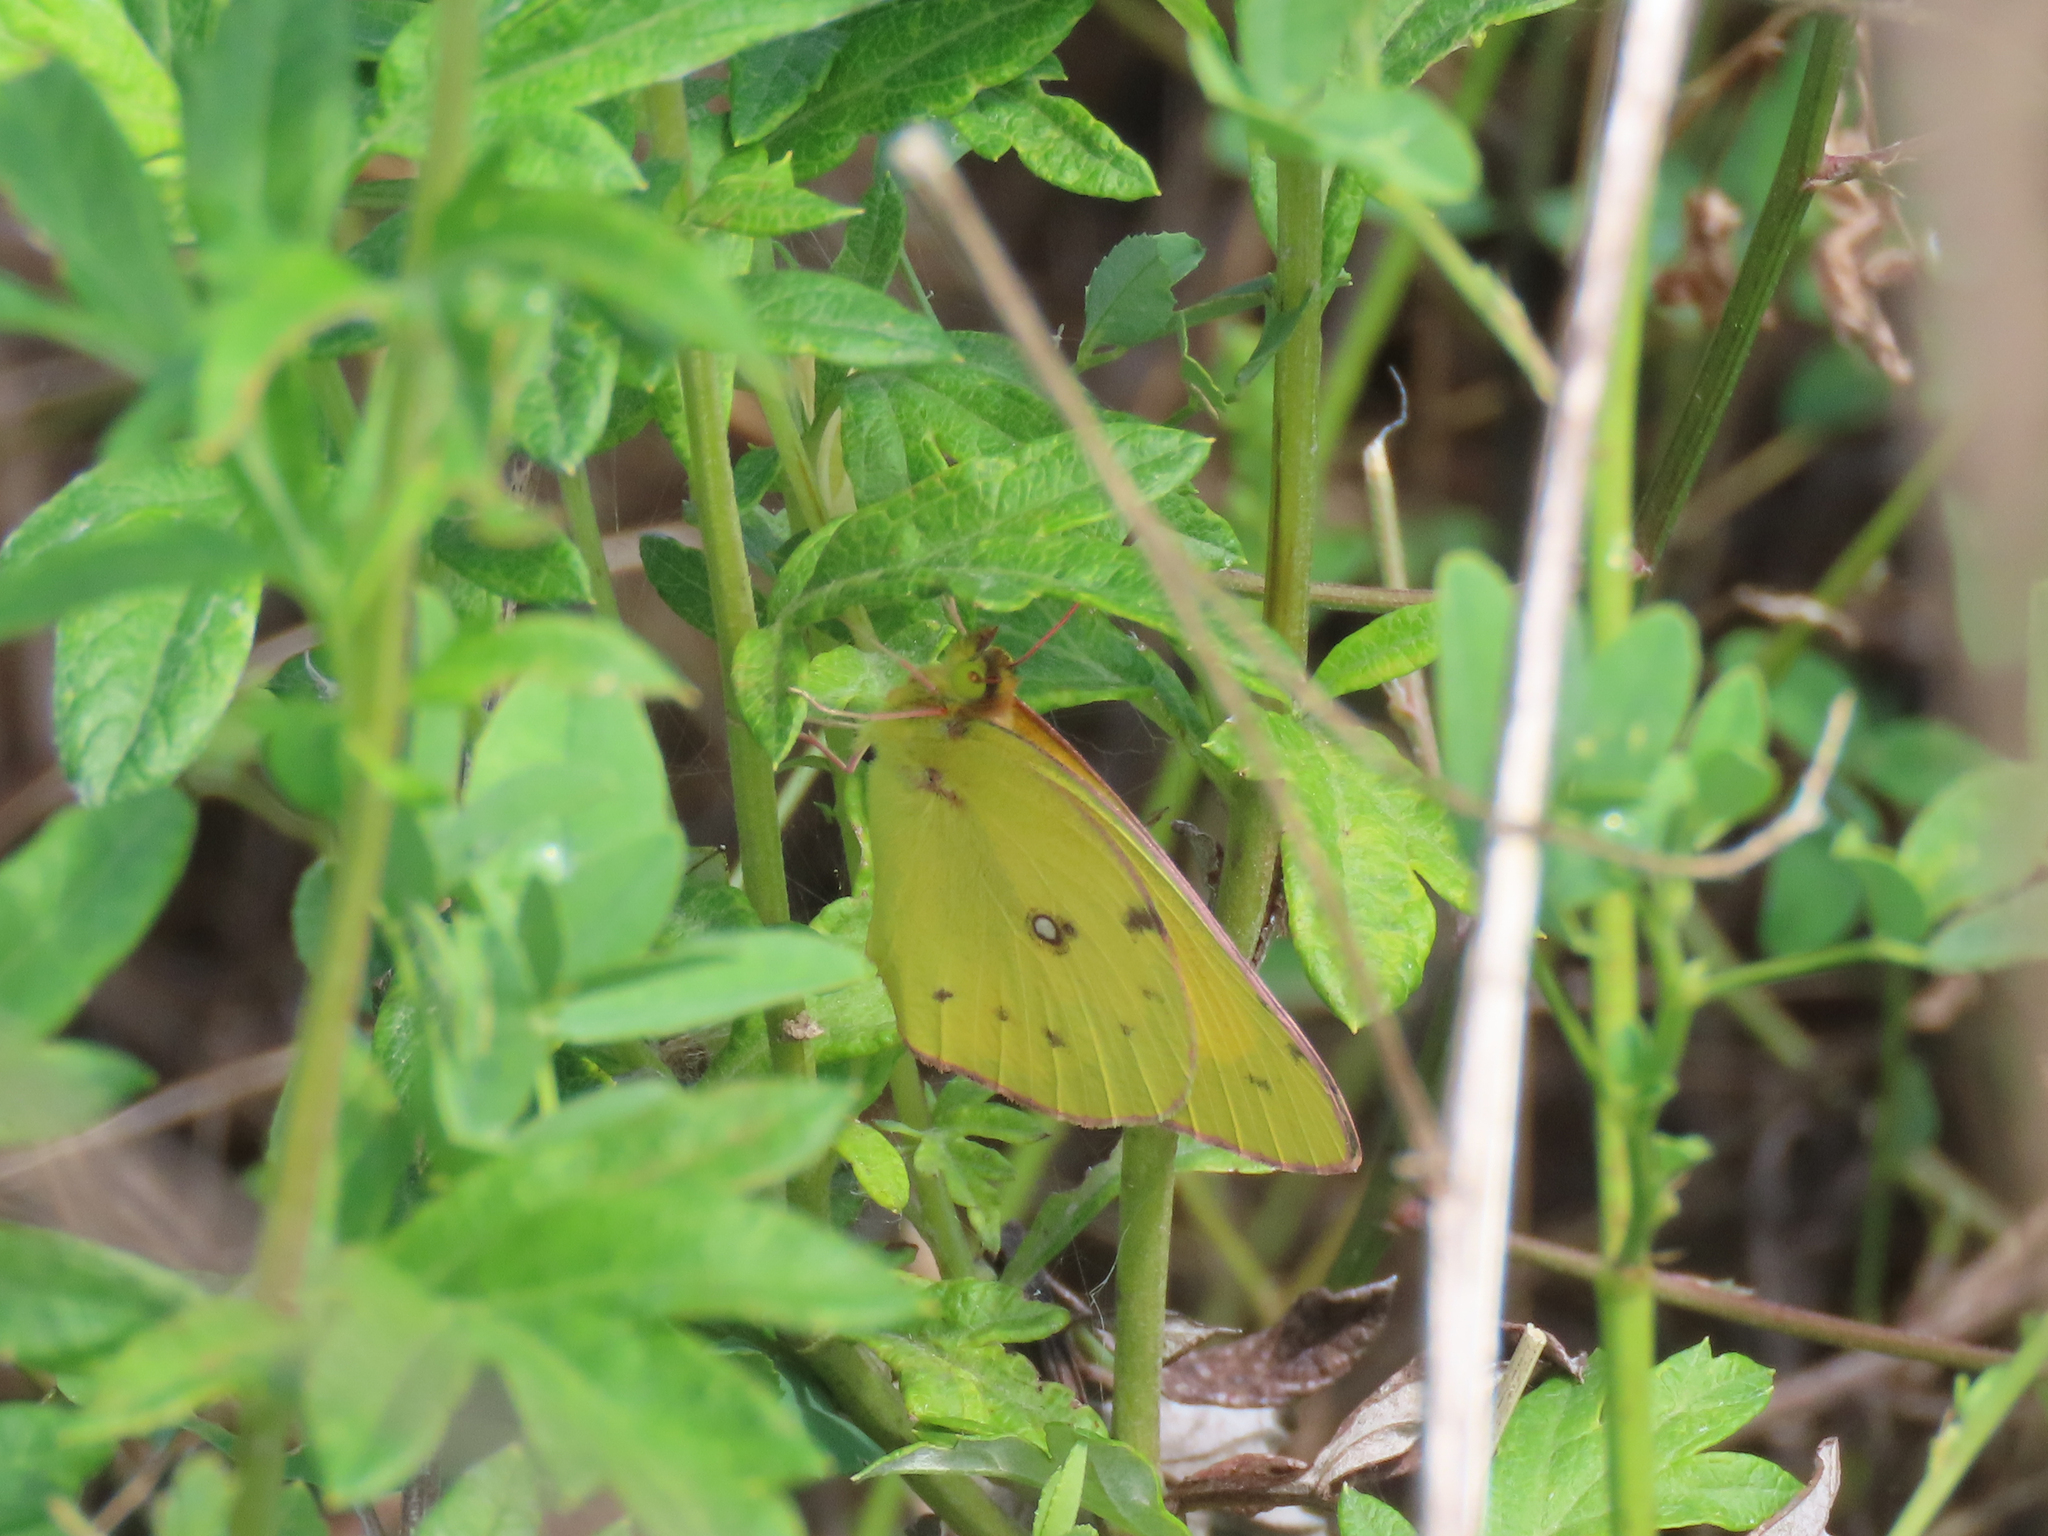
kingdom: Animalia
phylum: Arthropoda
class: Insecta
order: Lepidoptera
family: Pieridae
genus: Colias
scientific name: Colias eurytheme
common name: Alfalfa butterfly
